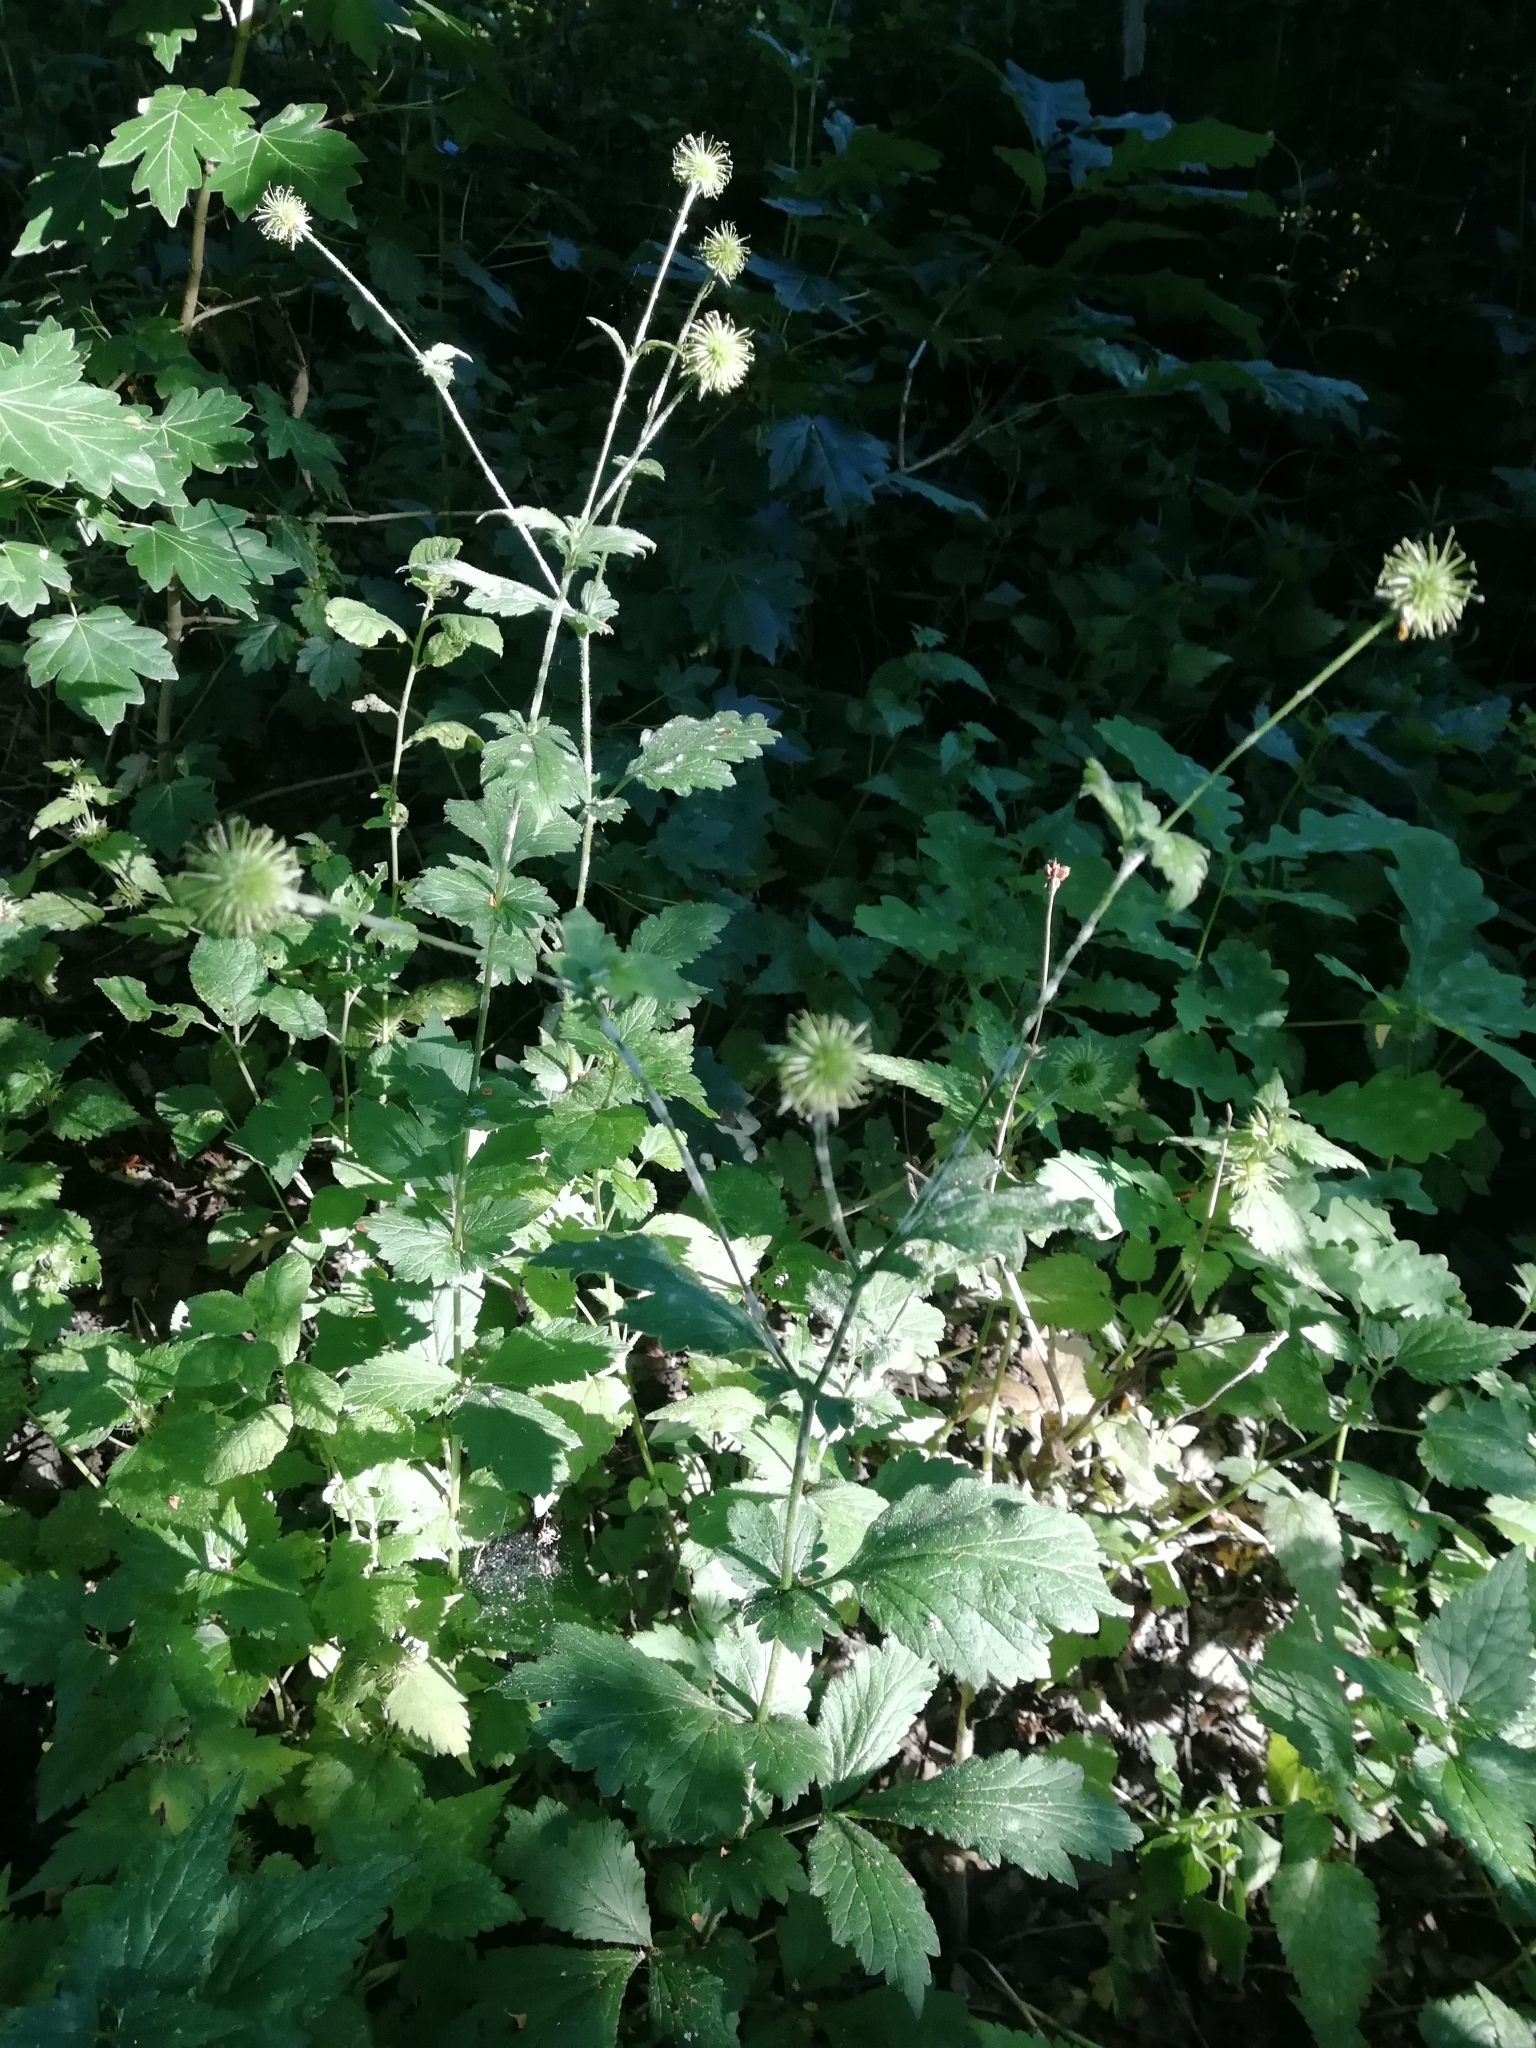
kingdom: Plantae
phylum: Tracheophyta
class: Magnoliopsida
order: Rosales
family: Rosaceae
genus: Geum
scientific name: Geum urbanum
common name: Wood avens
